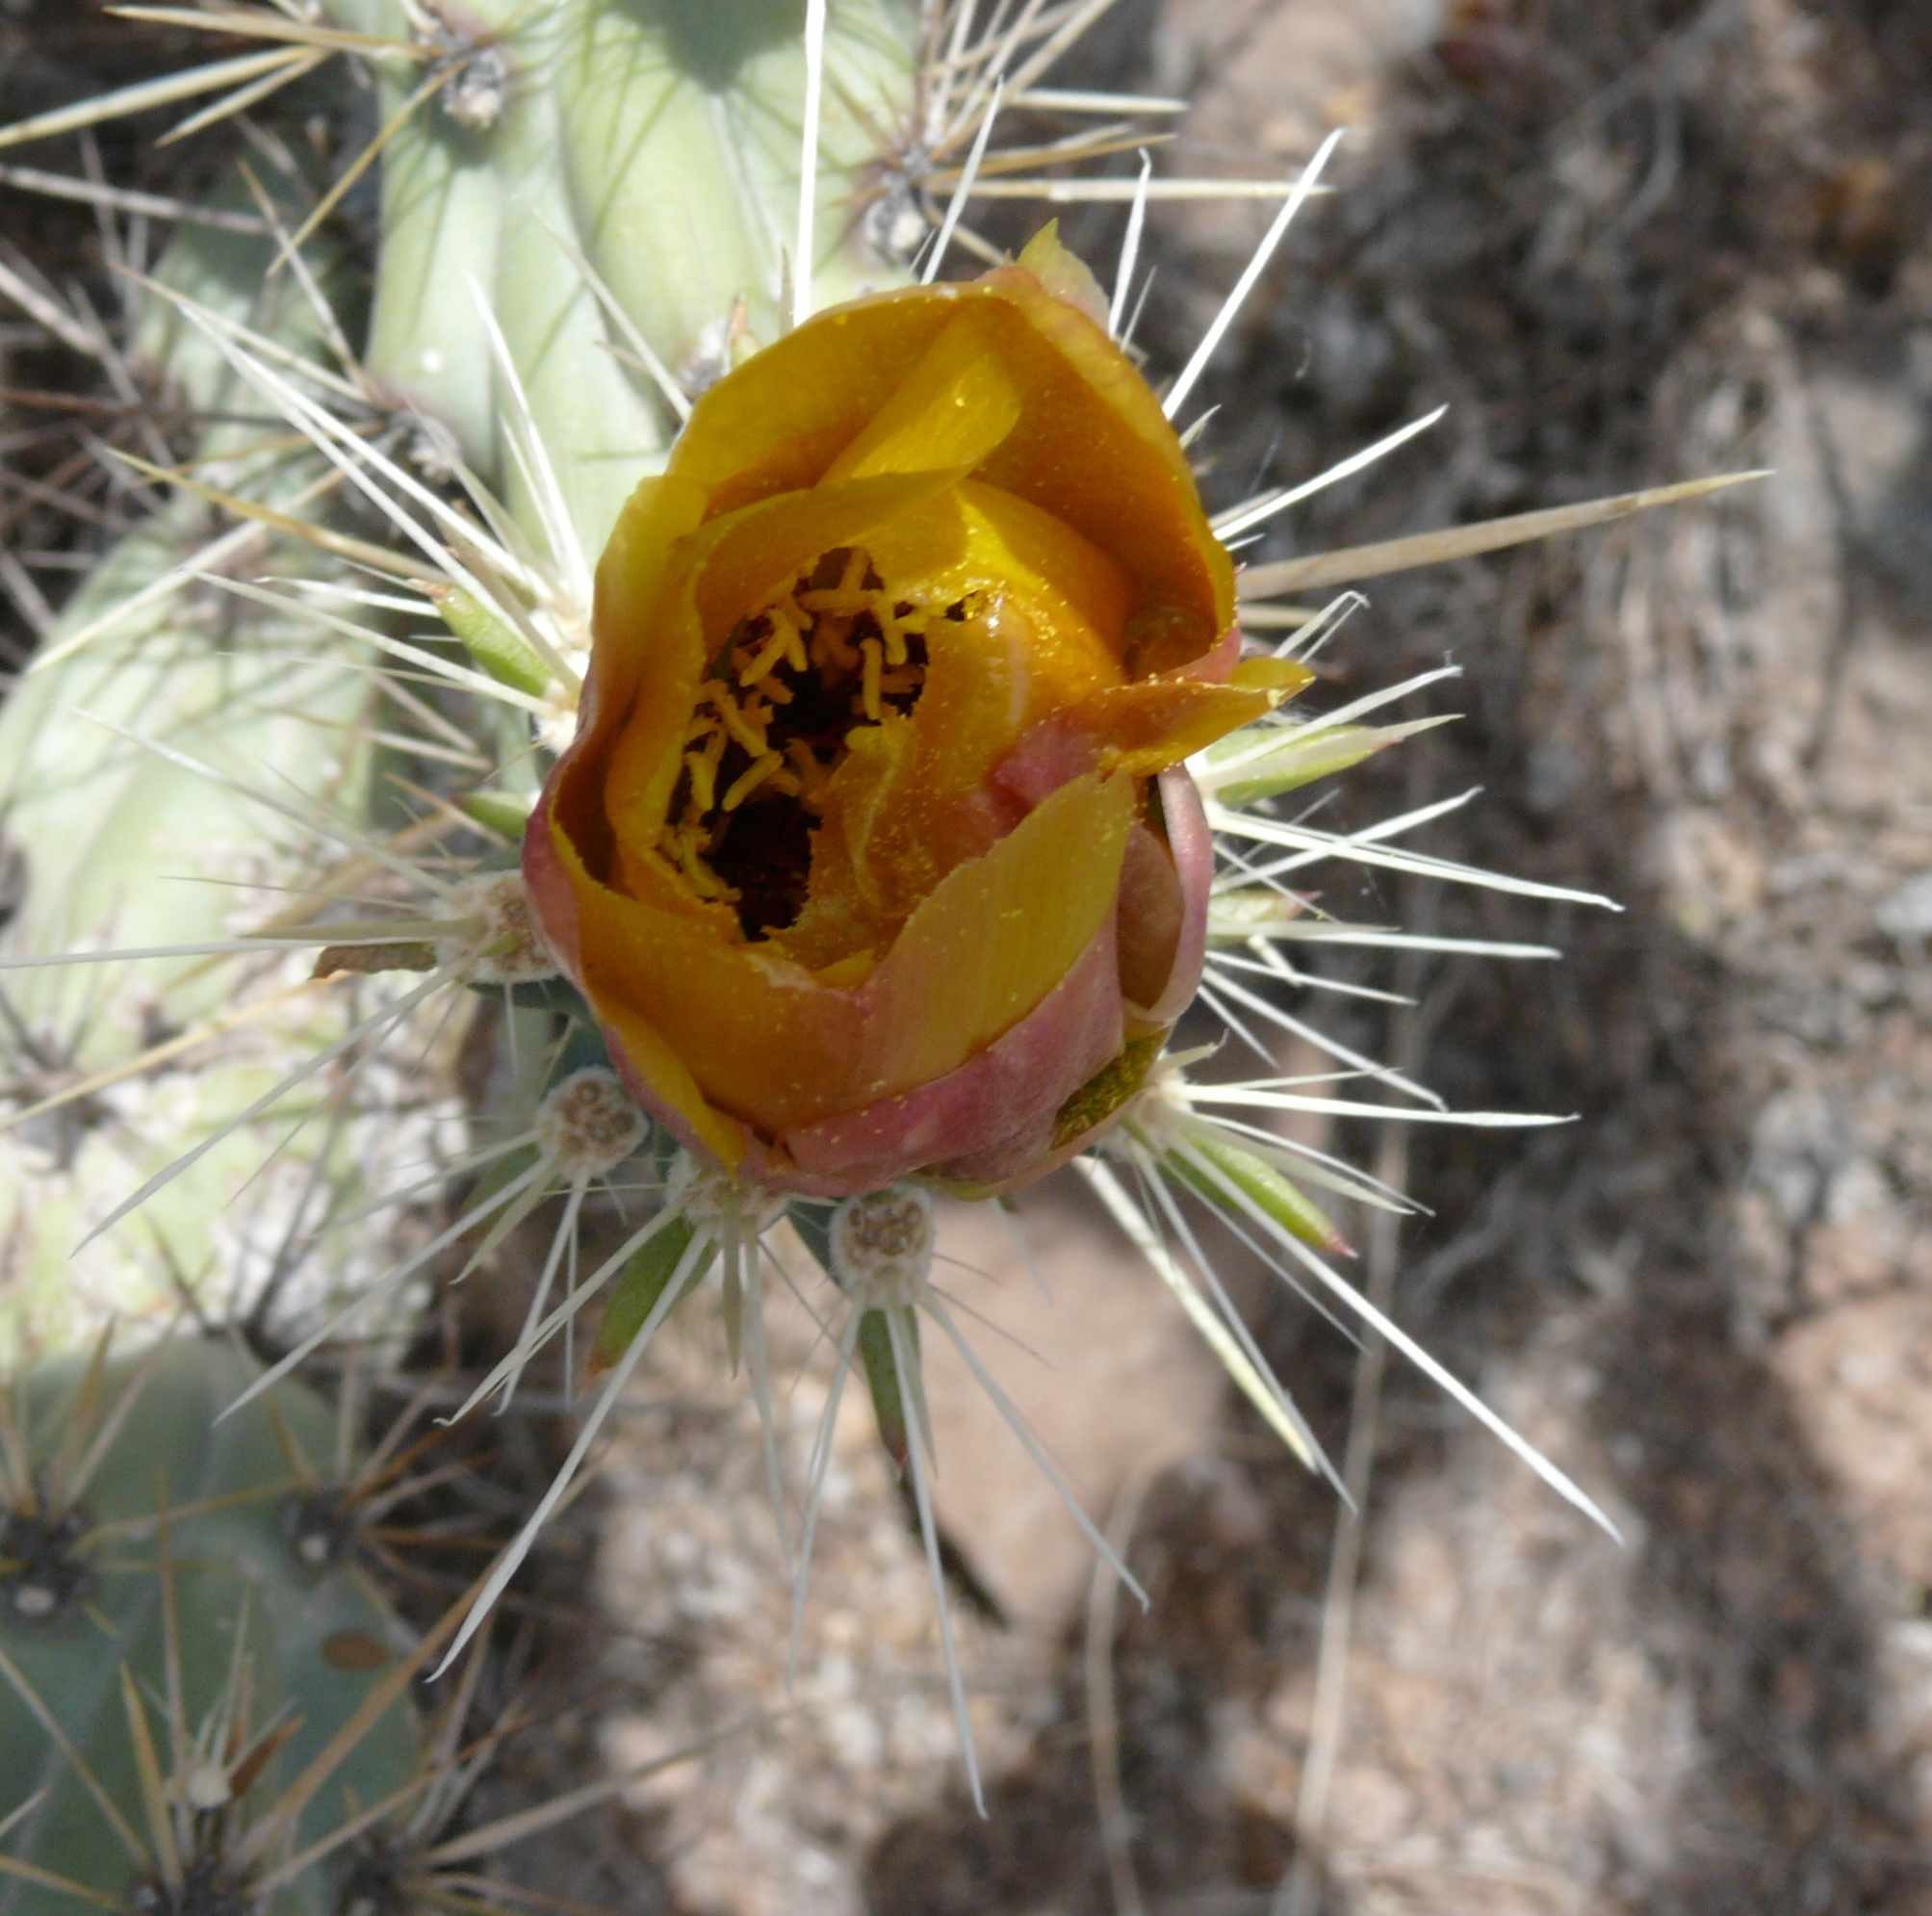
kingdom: Plantae
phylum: Tracheophyta
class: Magnoliopsida
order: Caryophyllales
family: Cactaceae
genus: Cylindropuntia
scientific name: Cylindropuntia acanthocarpa
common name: Buckhorn cholla
